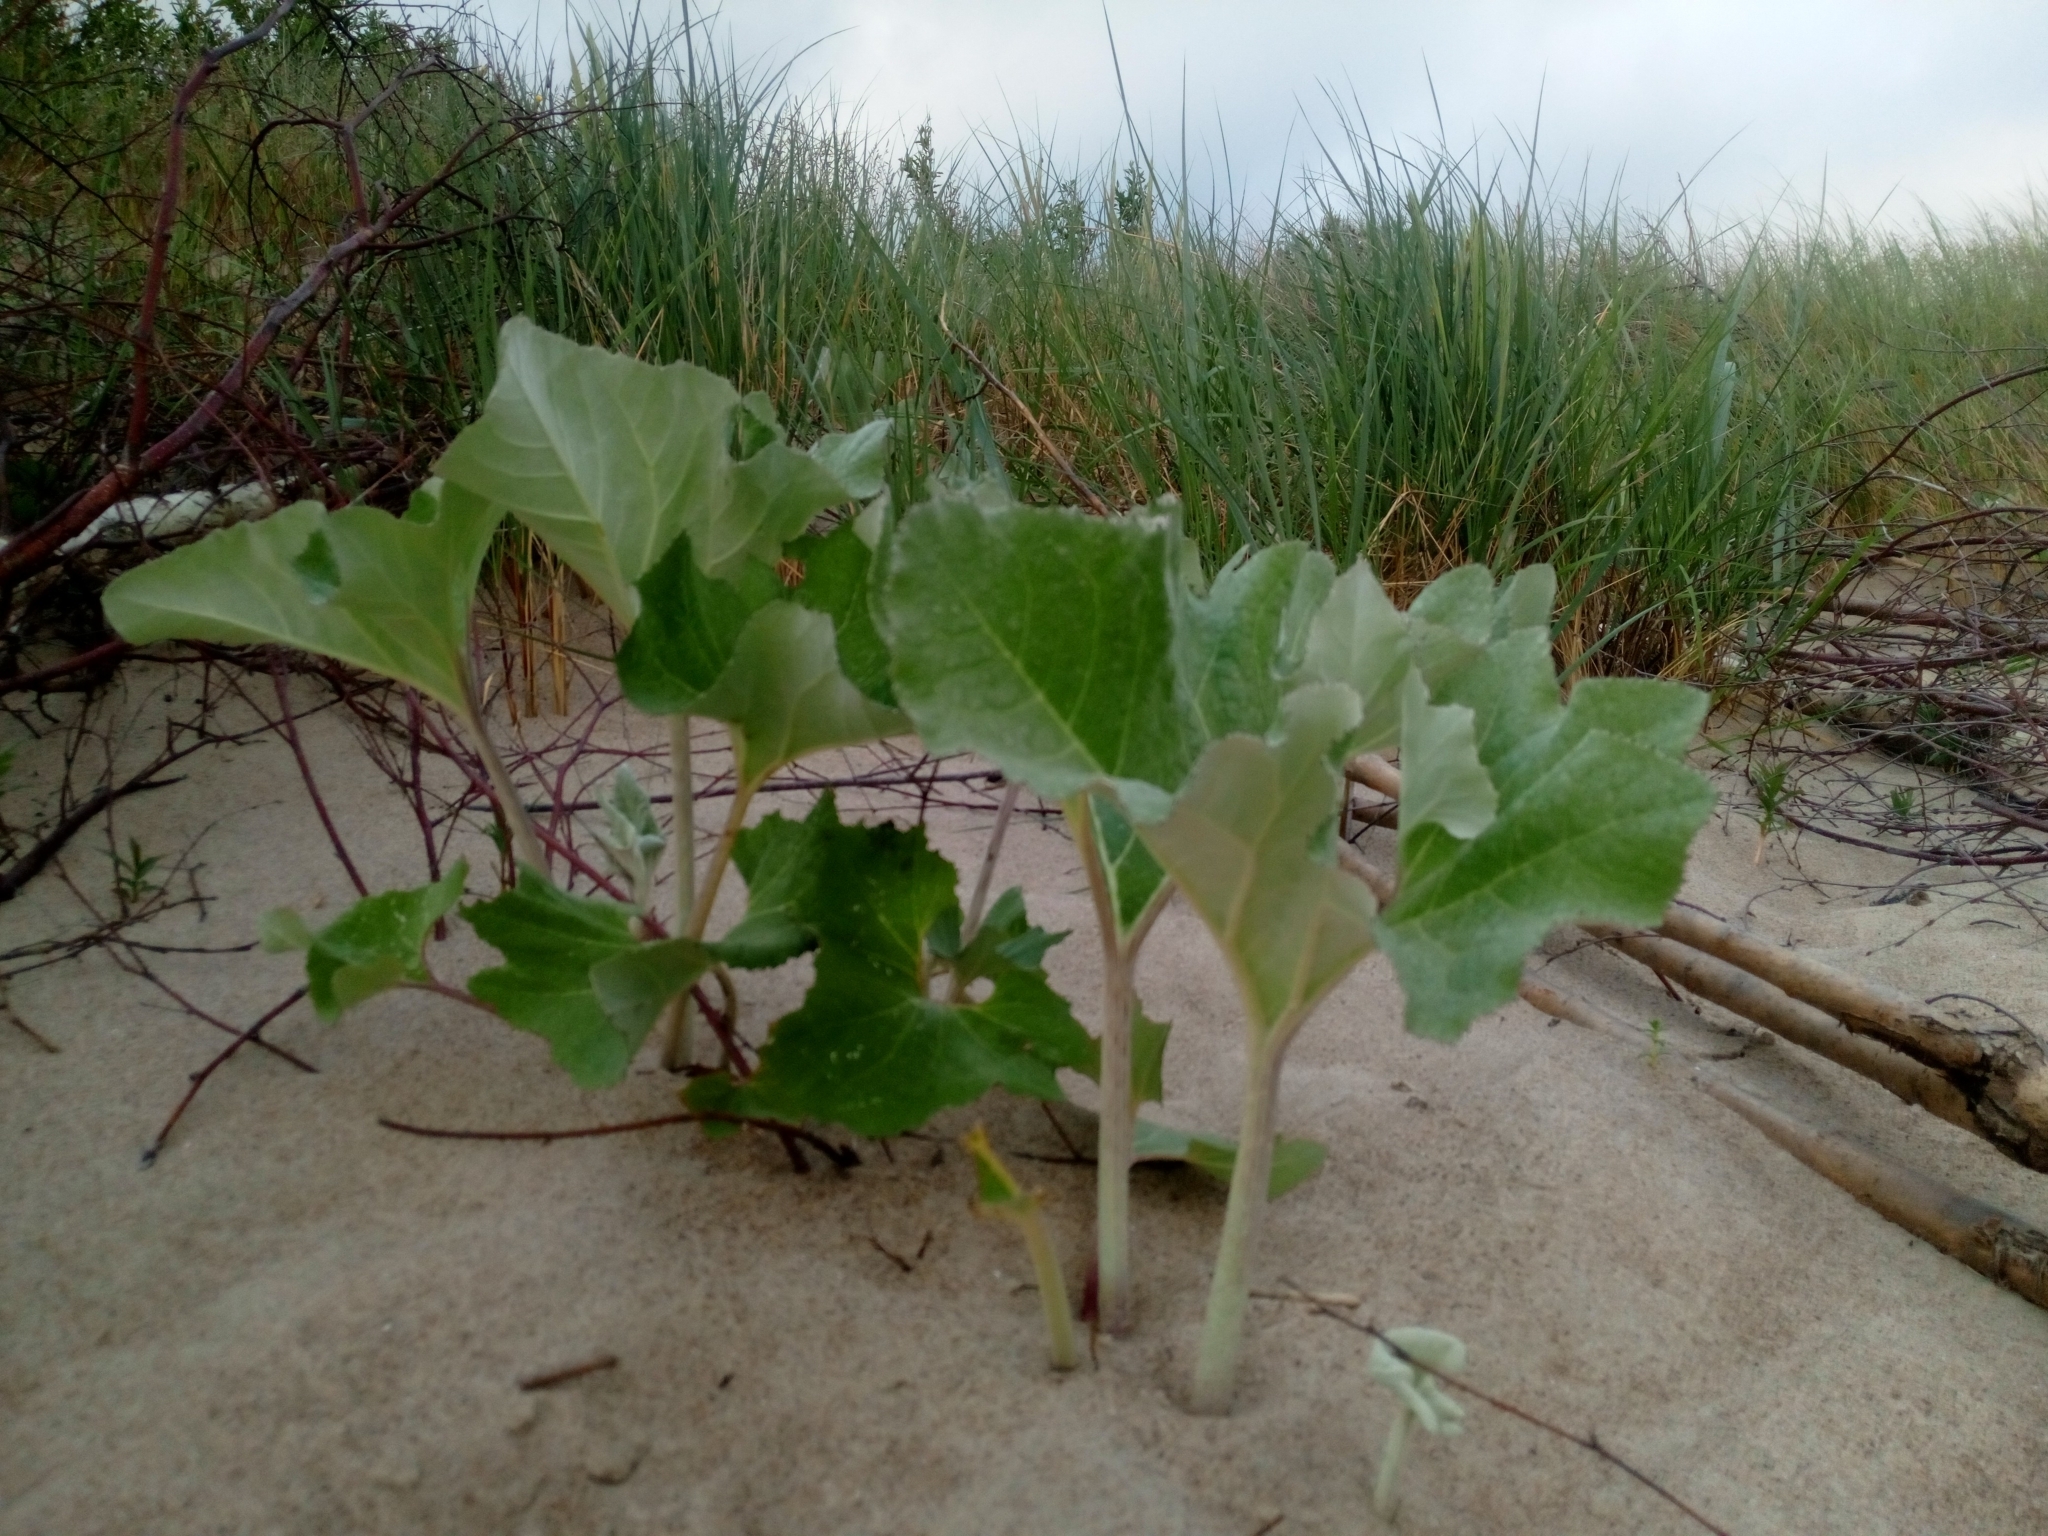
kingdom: Plantae
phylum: Tracheophyta
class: Magnoliopsida
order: Asterales
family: Asteraceae
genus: Petasites
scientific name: Petasites spurius
